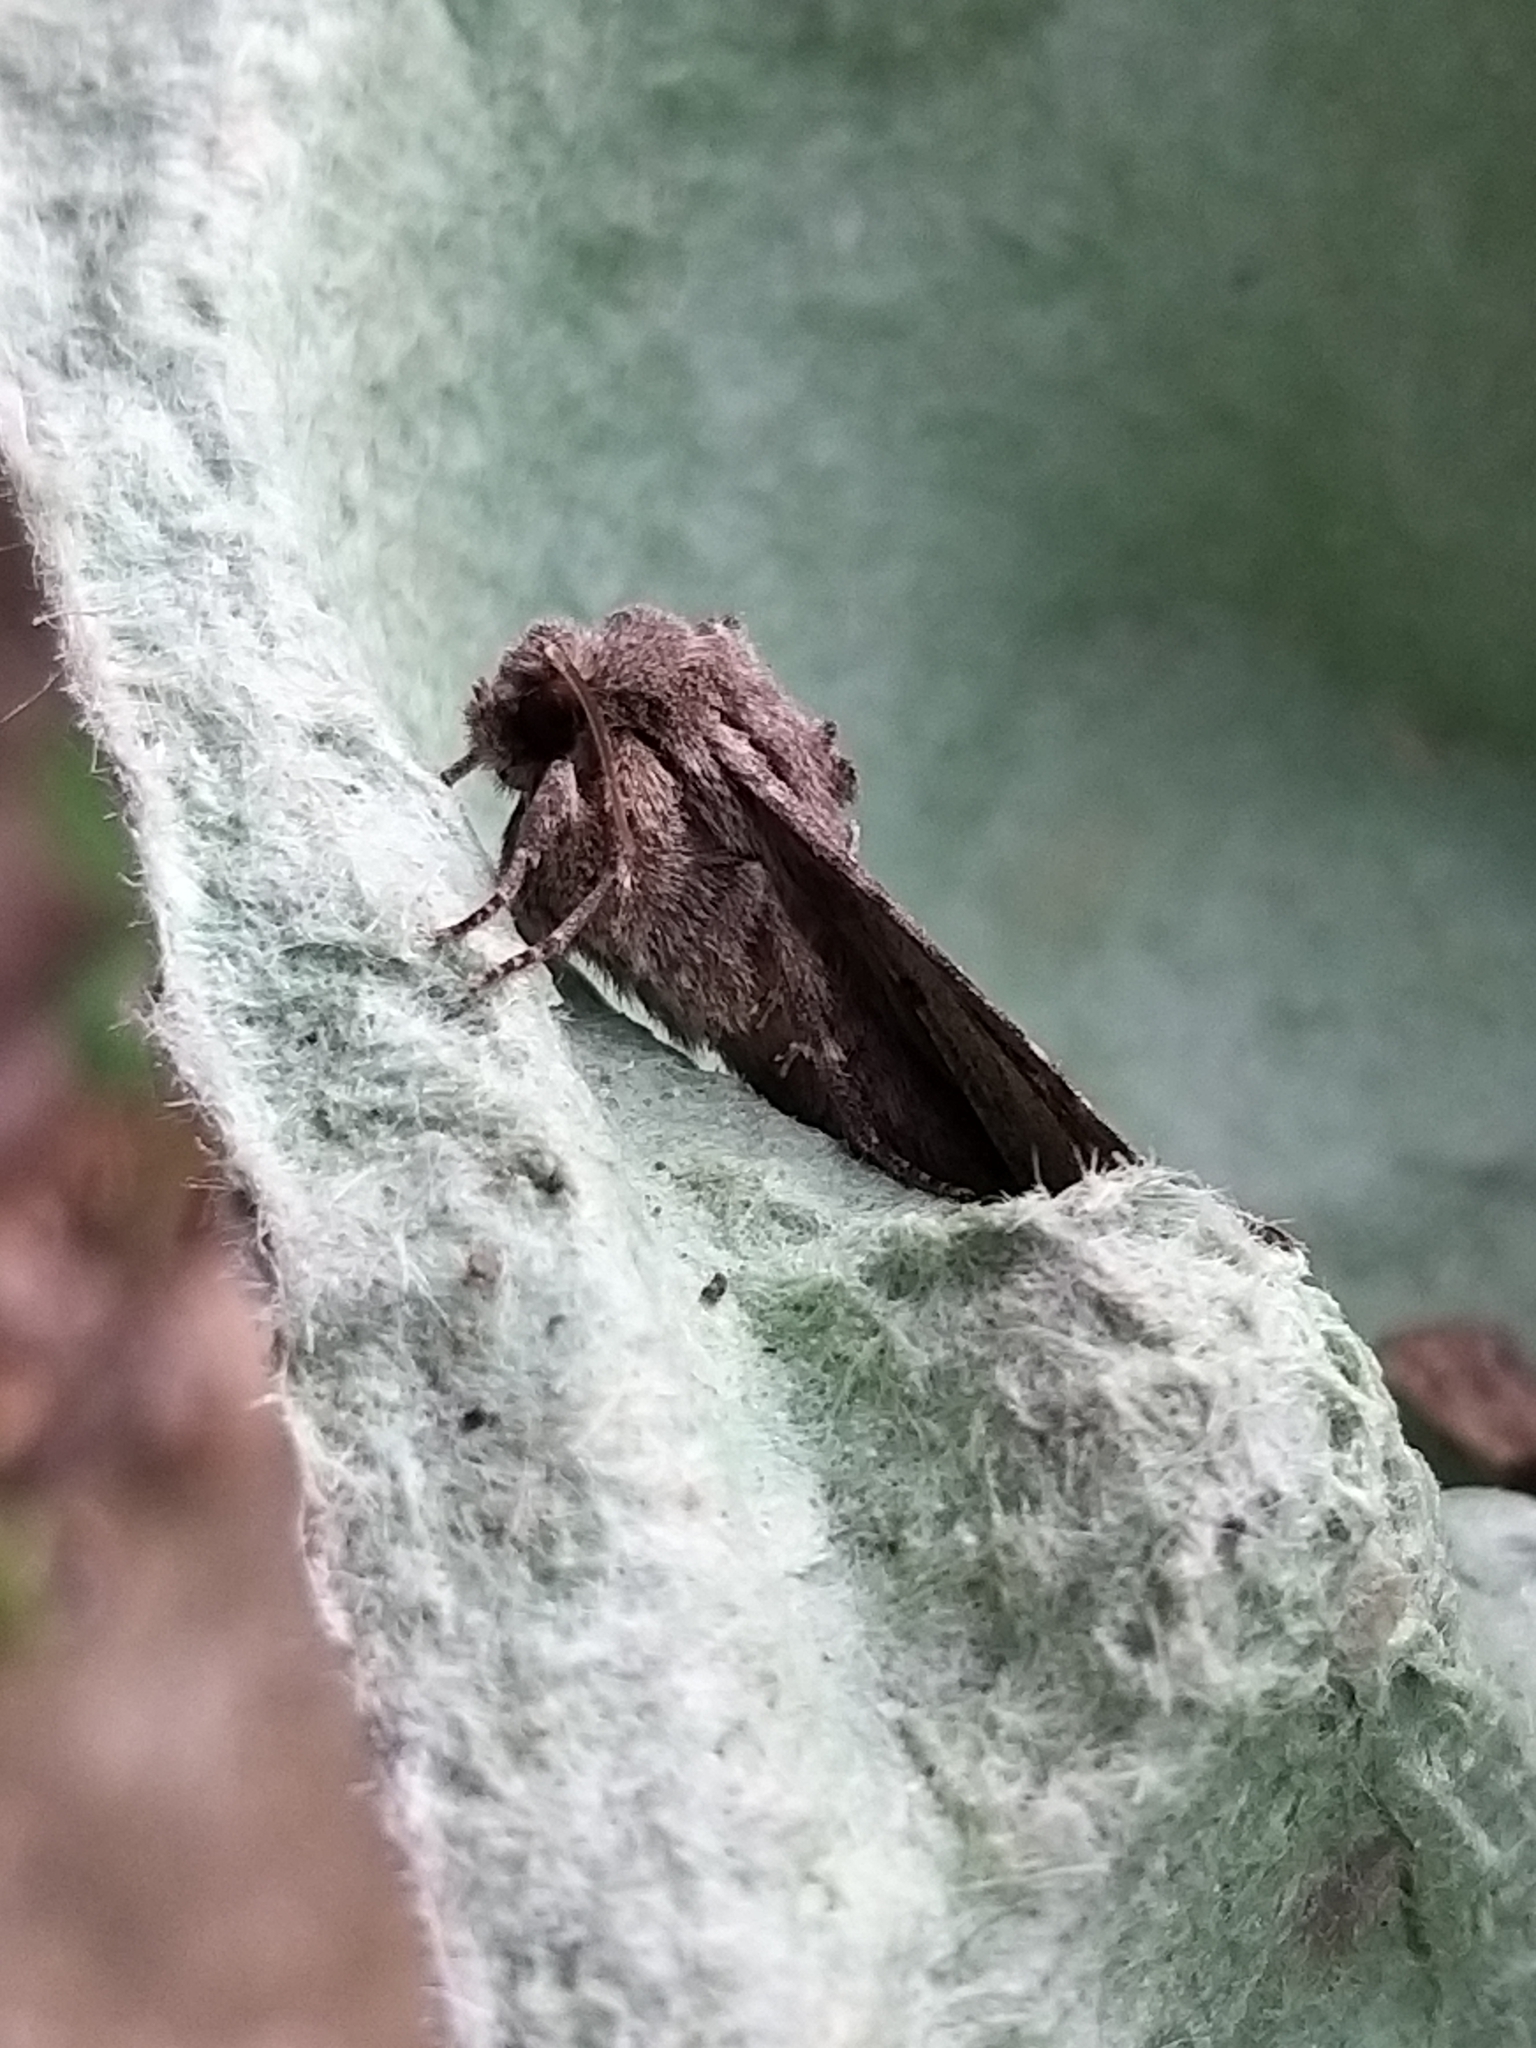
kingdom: Animalia
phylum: Arthropoda
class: Insecta
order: Lepidoptera
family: Noctuidae
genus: Apamea
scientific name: Apamea sordens
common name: Rustic shoulder-knot
